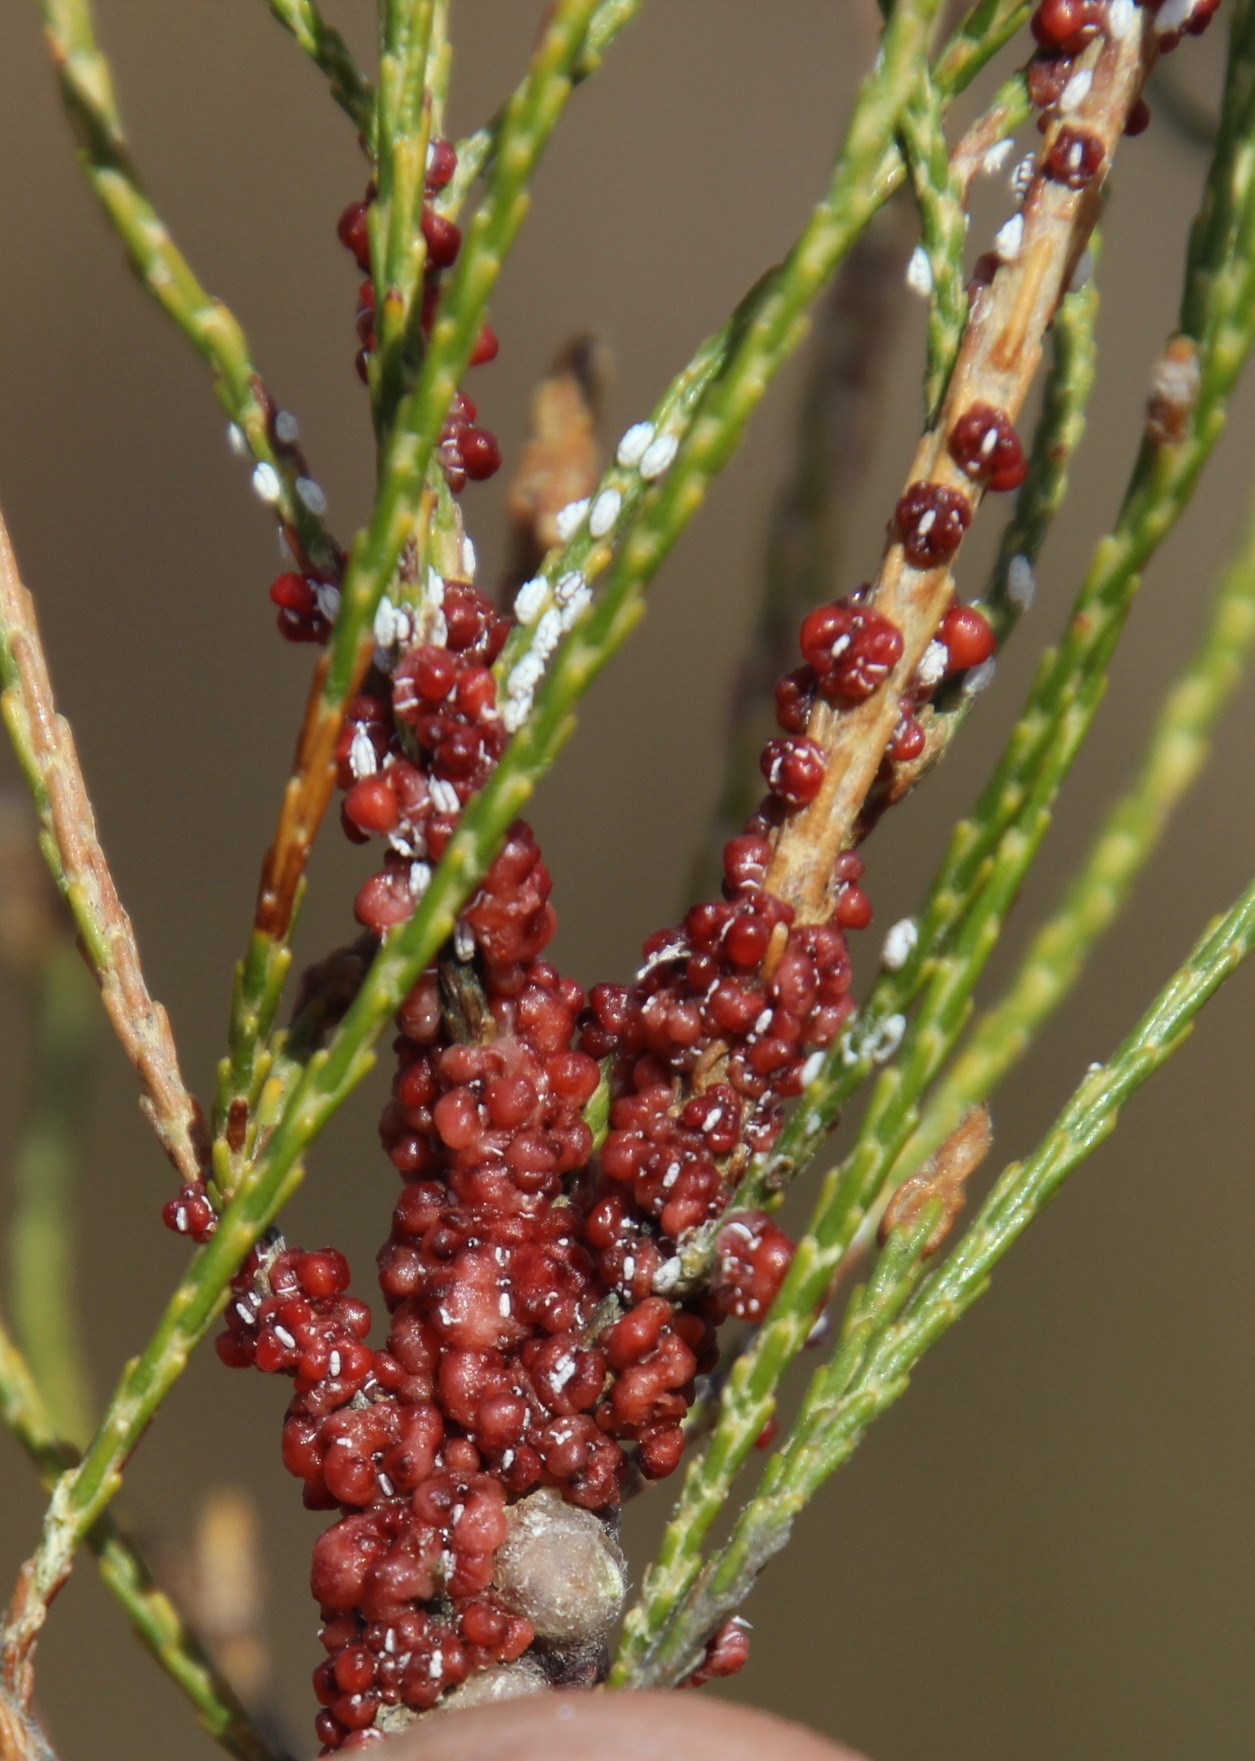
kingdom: Animalia
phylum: Arthropoda
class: Insecta
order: Hemiptera
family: Coccidae
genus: Ceroplastes
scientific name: Ceroplastes tachardiaformis
